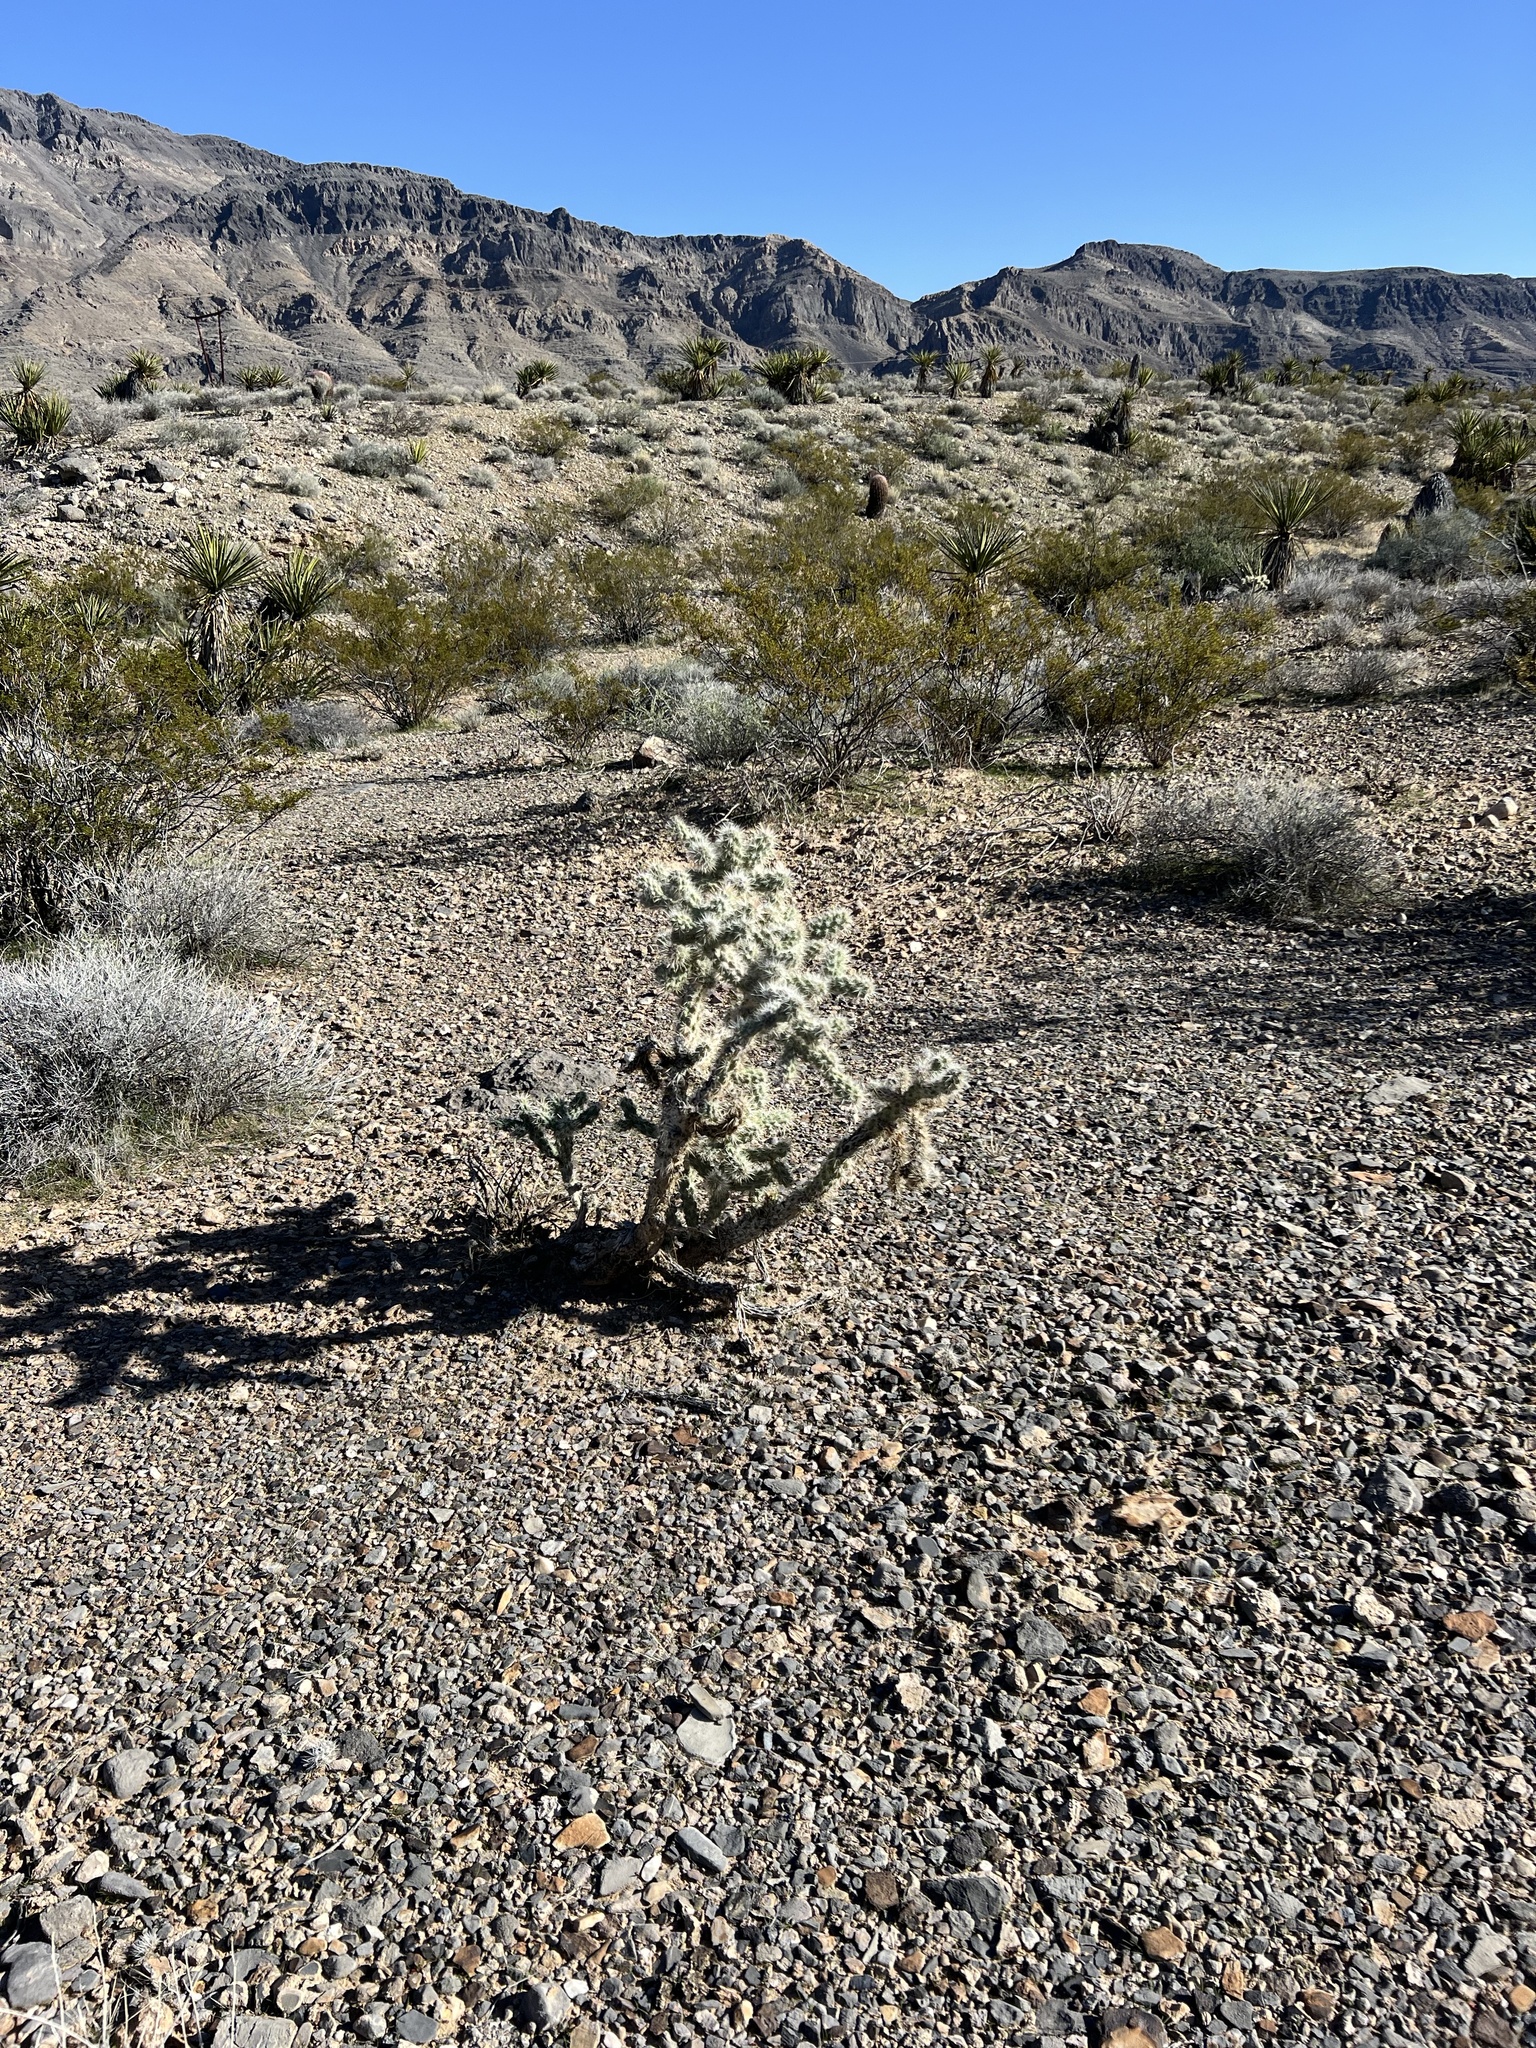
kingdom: Plantae
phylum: Tracheophyta
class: Magnoliopsida
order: Caryophyllales
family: Cactaceae
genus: Cylindropuntia
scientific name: Cylindropuntia echinocarpa
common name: Ground cholla
